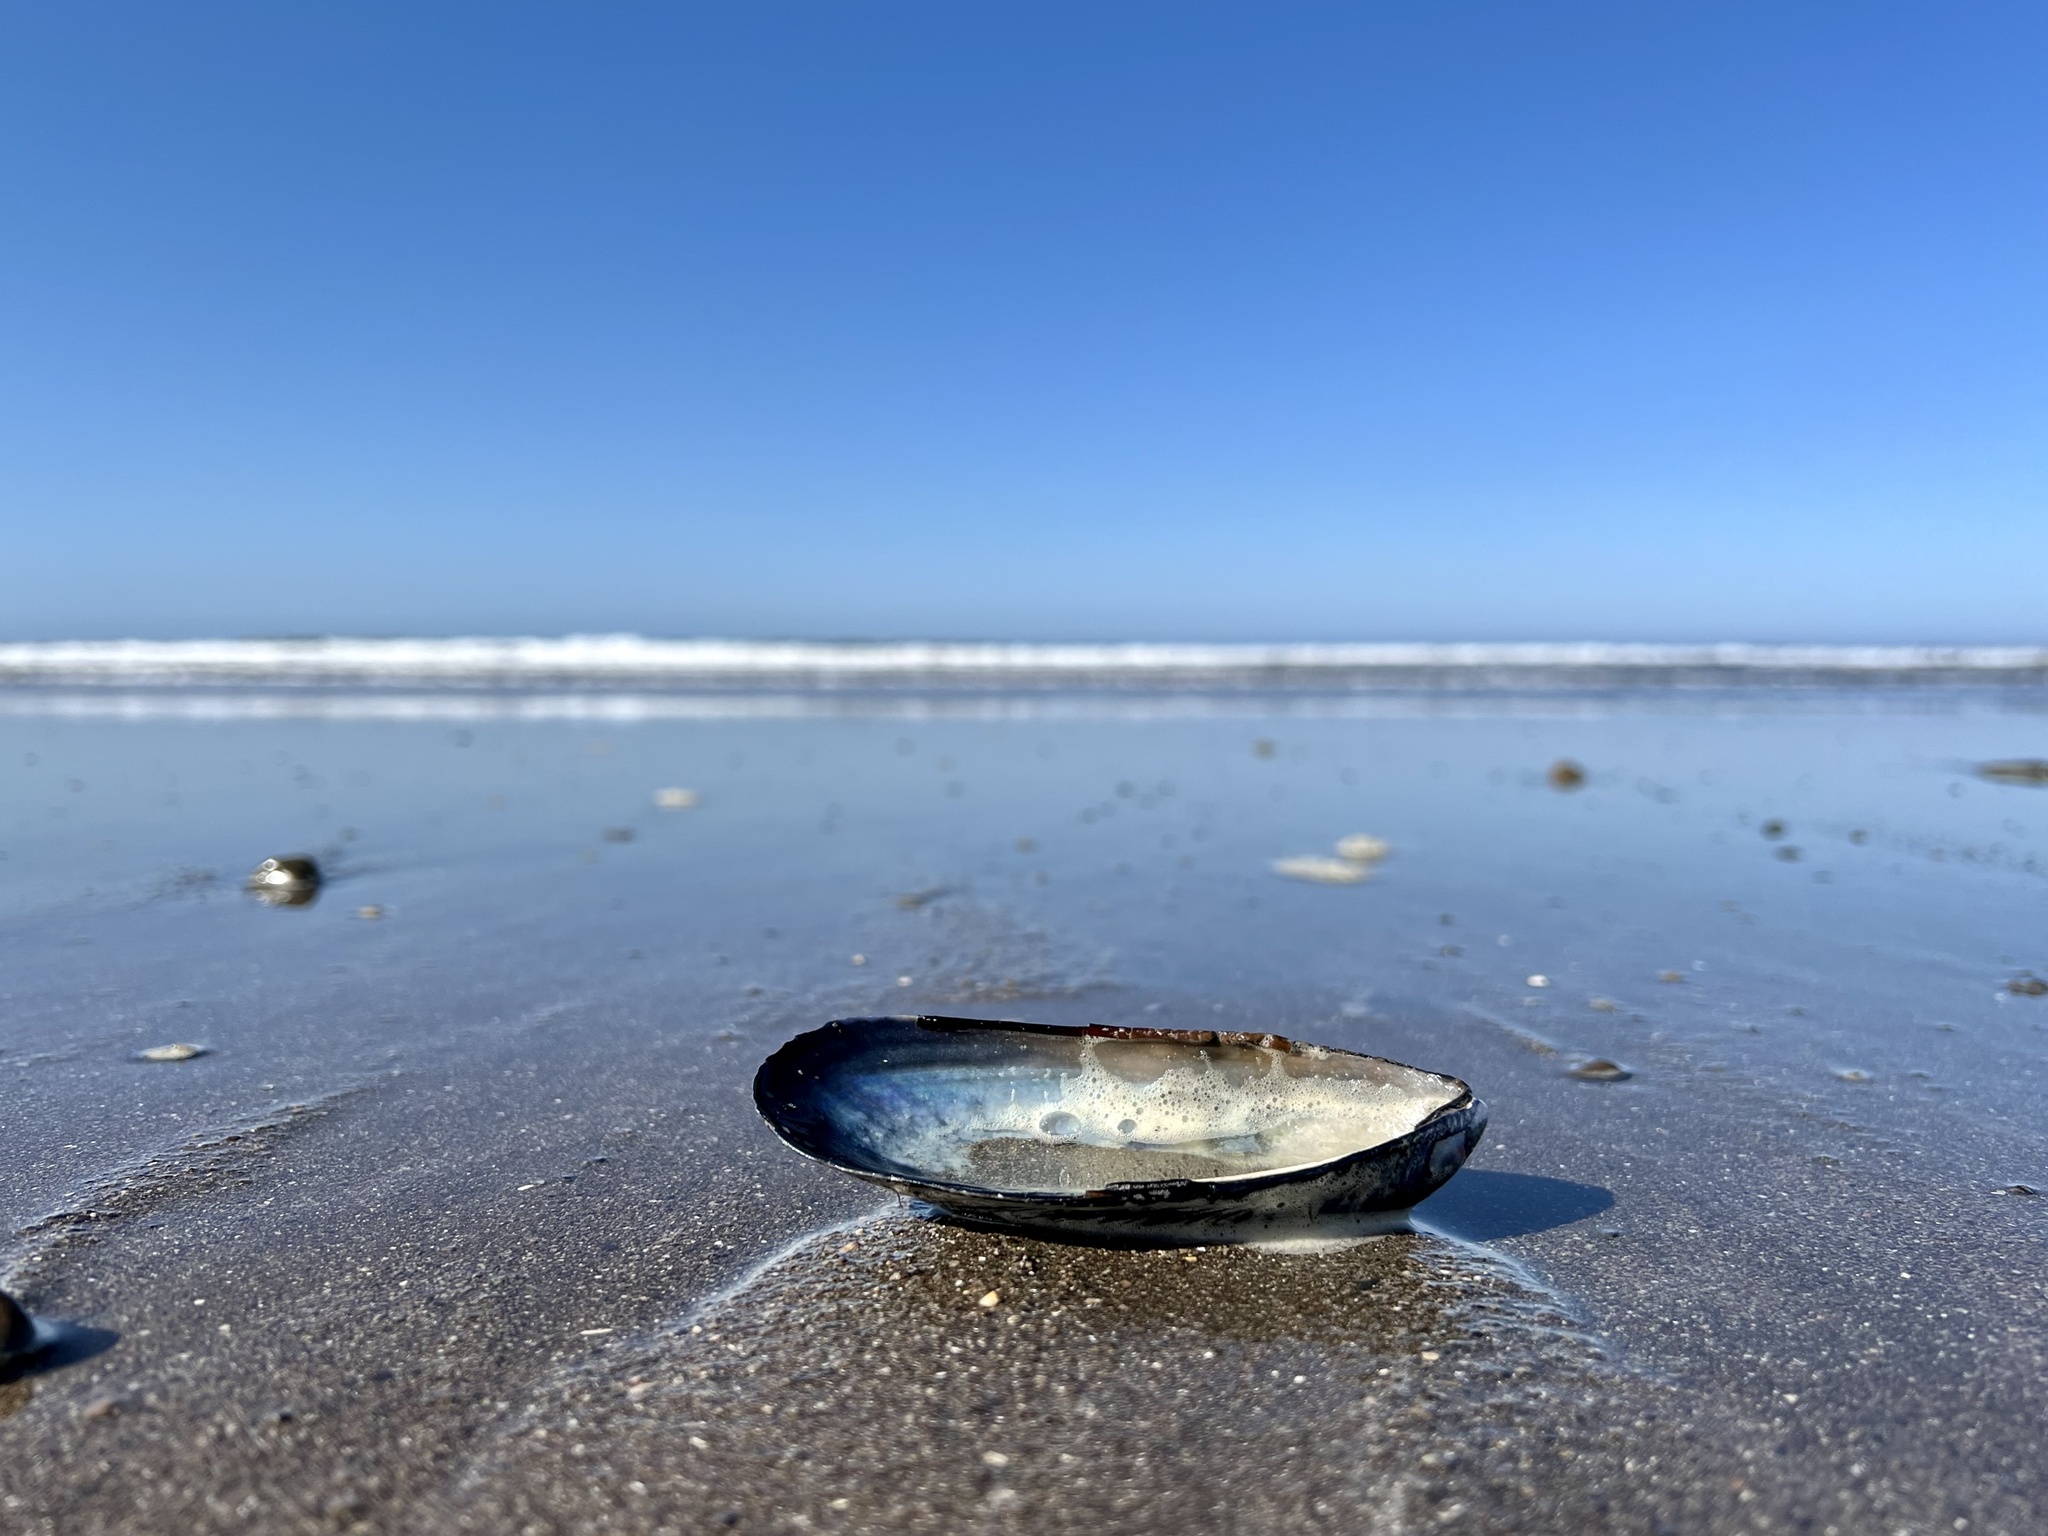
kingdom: Animalia
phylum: Mollusca
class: Bivalvia
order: Mytilida
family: Mytilidae
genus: Mytilus
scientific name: Mytilus californianus
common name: California mussel
